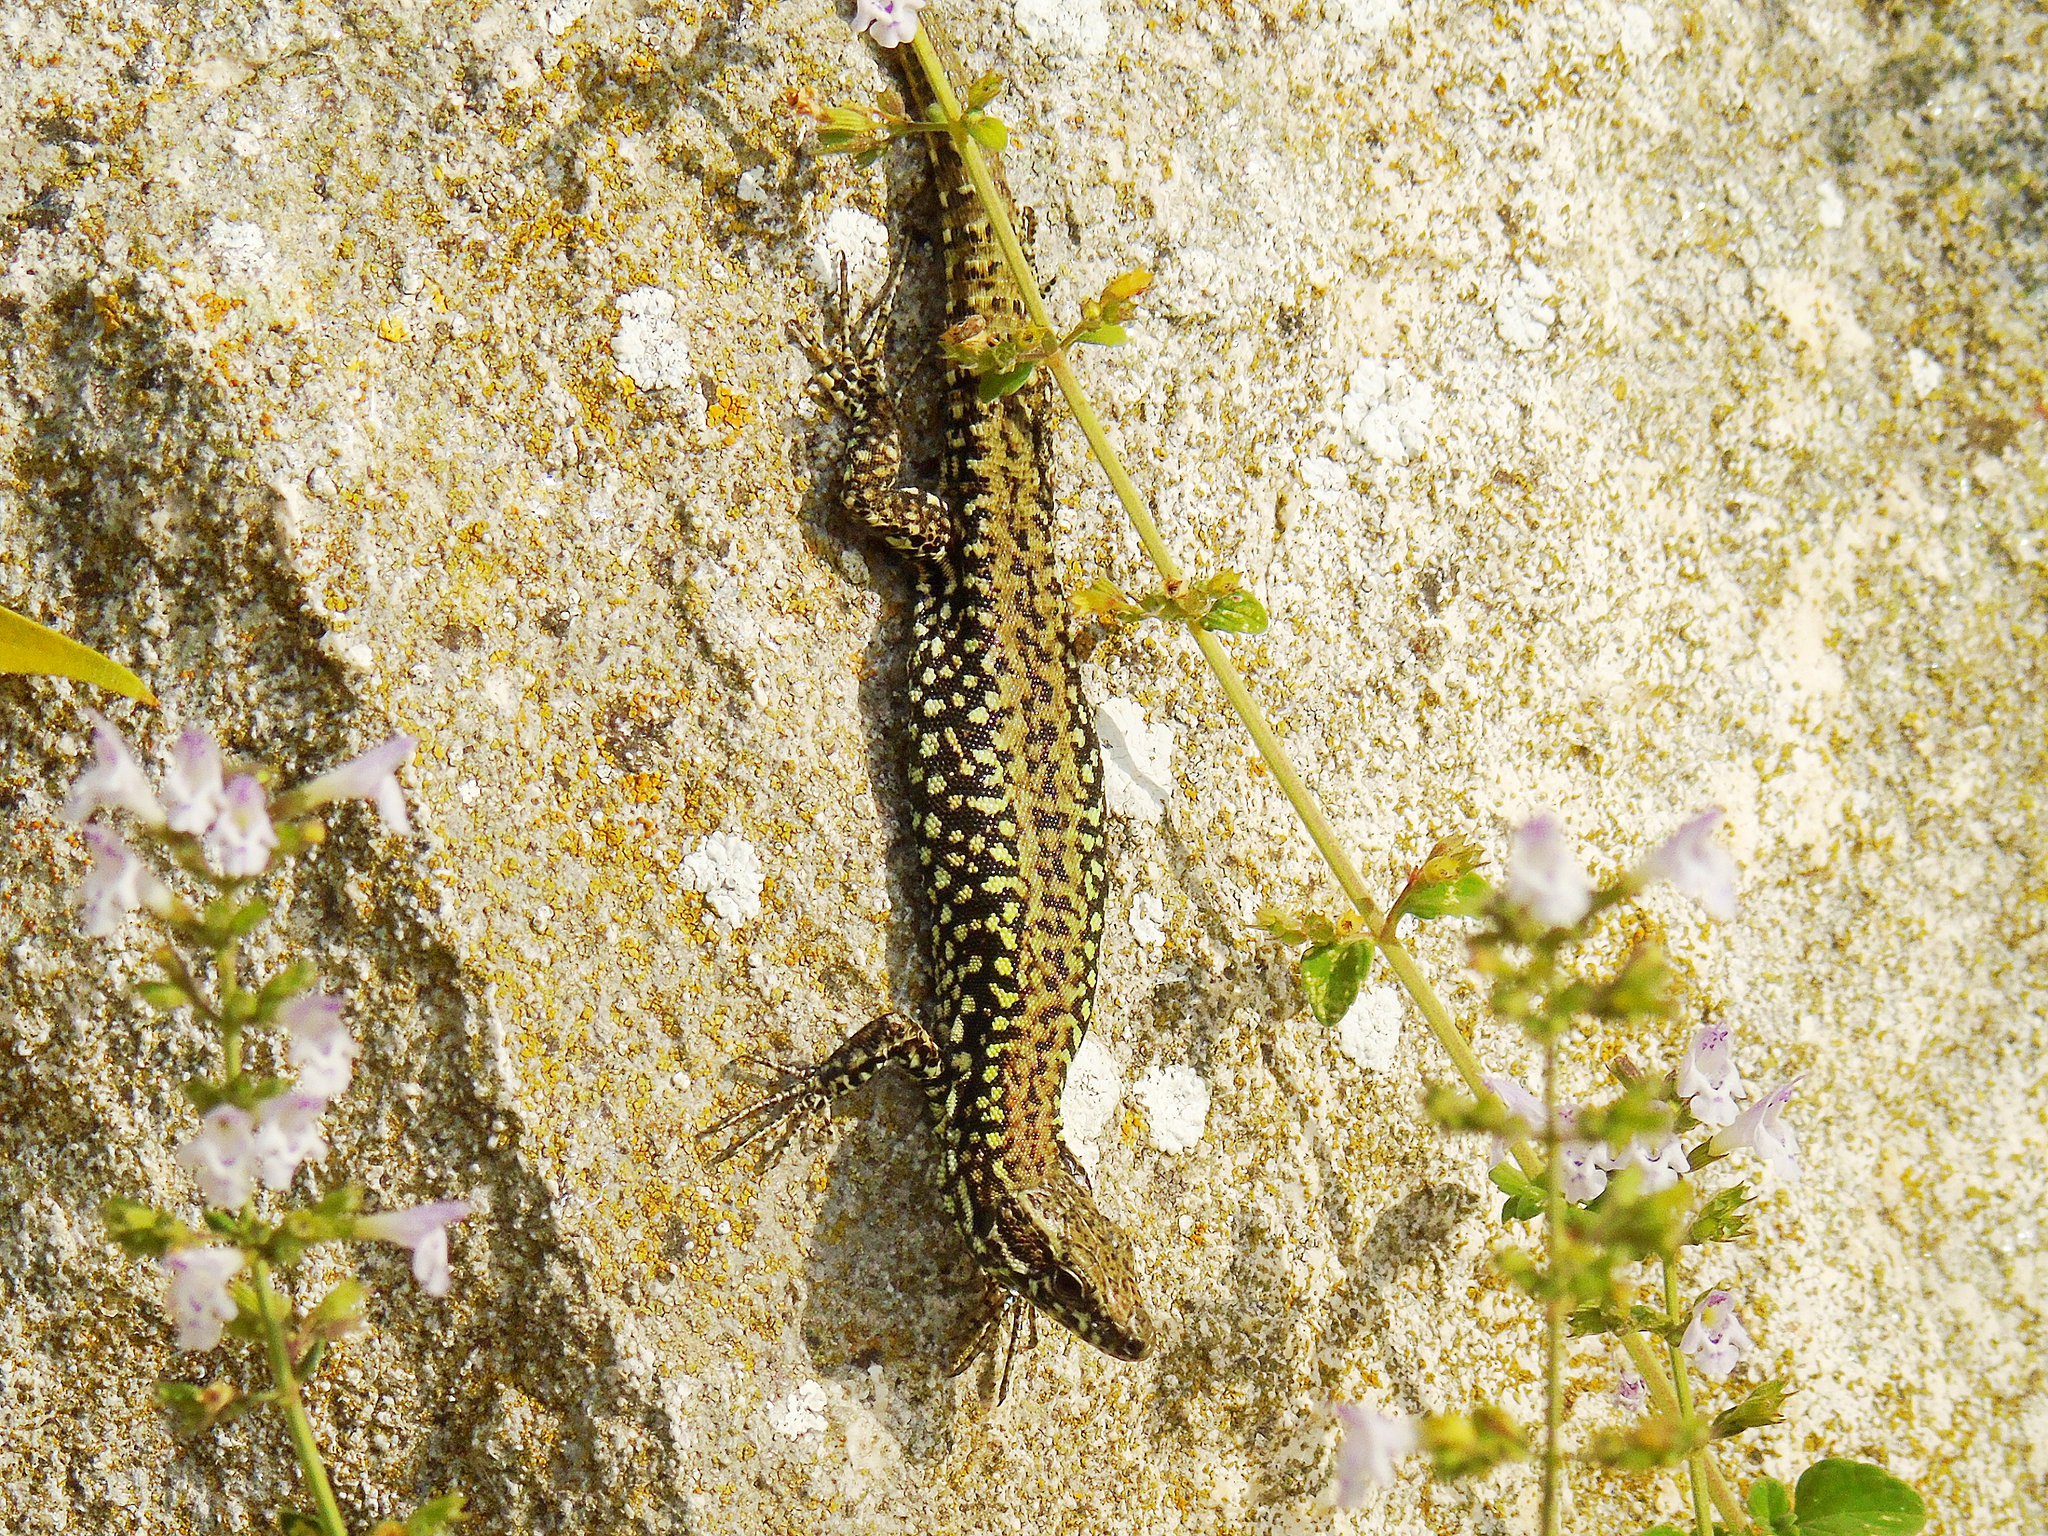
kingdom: Animalia
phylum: Chordata
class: Squamata
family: Lacertidae
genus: Podarcis
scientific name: Podarcis muralis
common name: Common wall lizard
